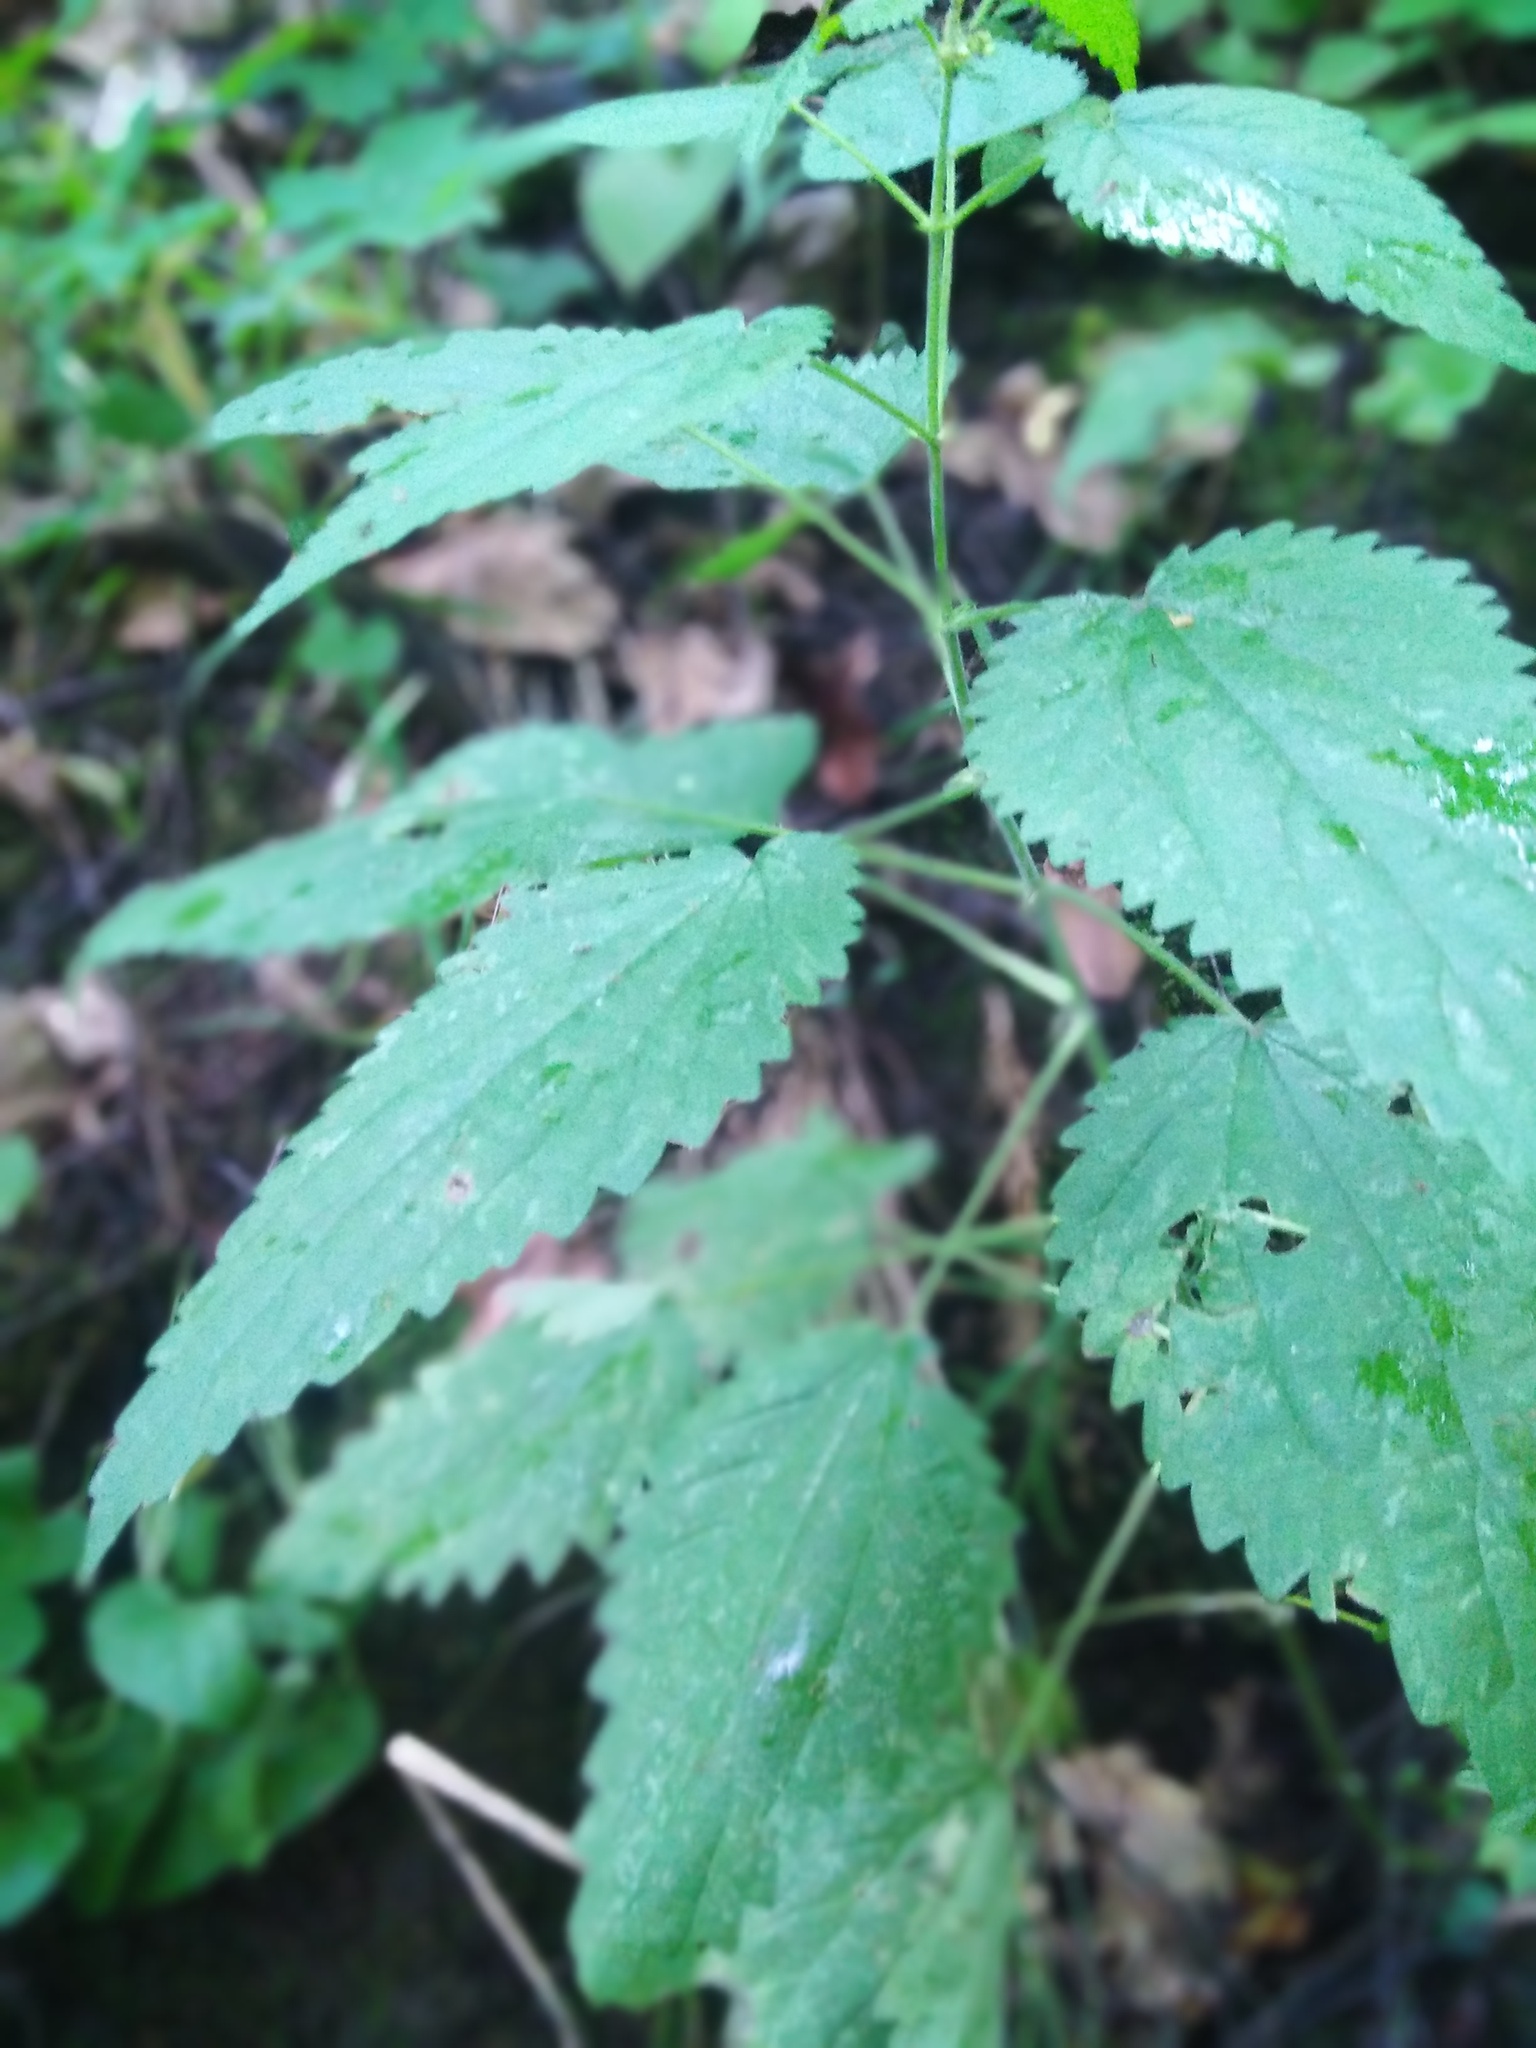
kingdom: Plantae
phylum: Tracheophyta
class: Magnoliopsida
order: Rosales
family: Urticaceae
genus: Urtica
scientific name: Urtica dioica
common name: Common nettle
